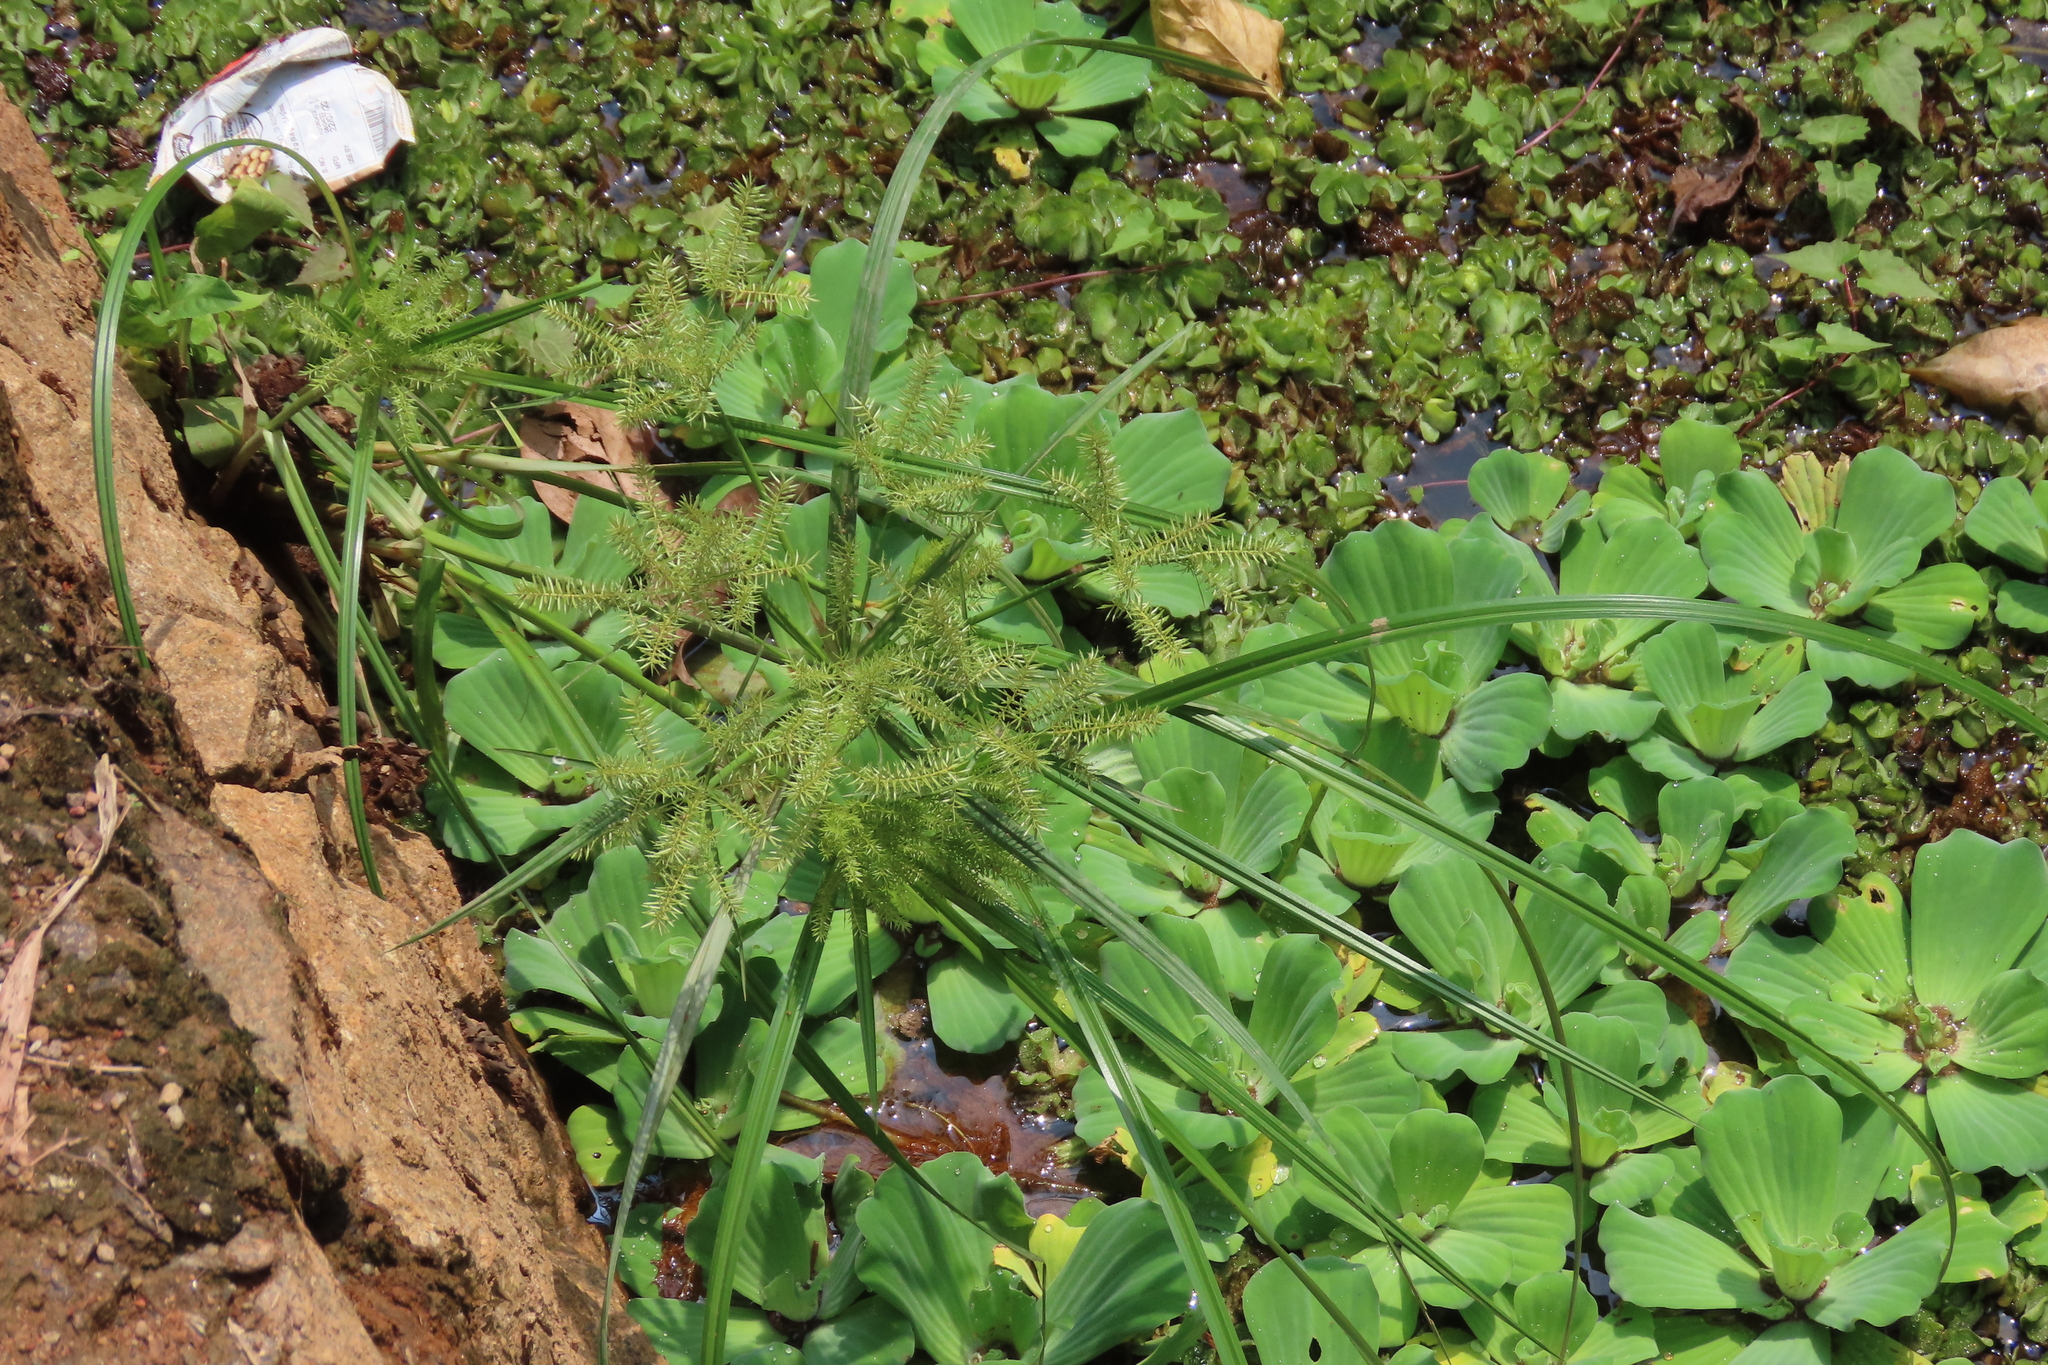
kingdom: Plantae
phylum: Tracheophyta
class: Liliopsida
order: Alismatales
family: Araceae
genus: Pistia
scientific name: Pistia stratiotes
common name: Water lettuce
